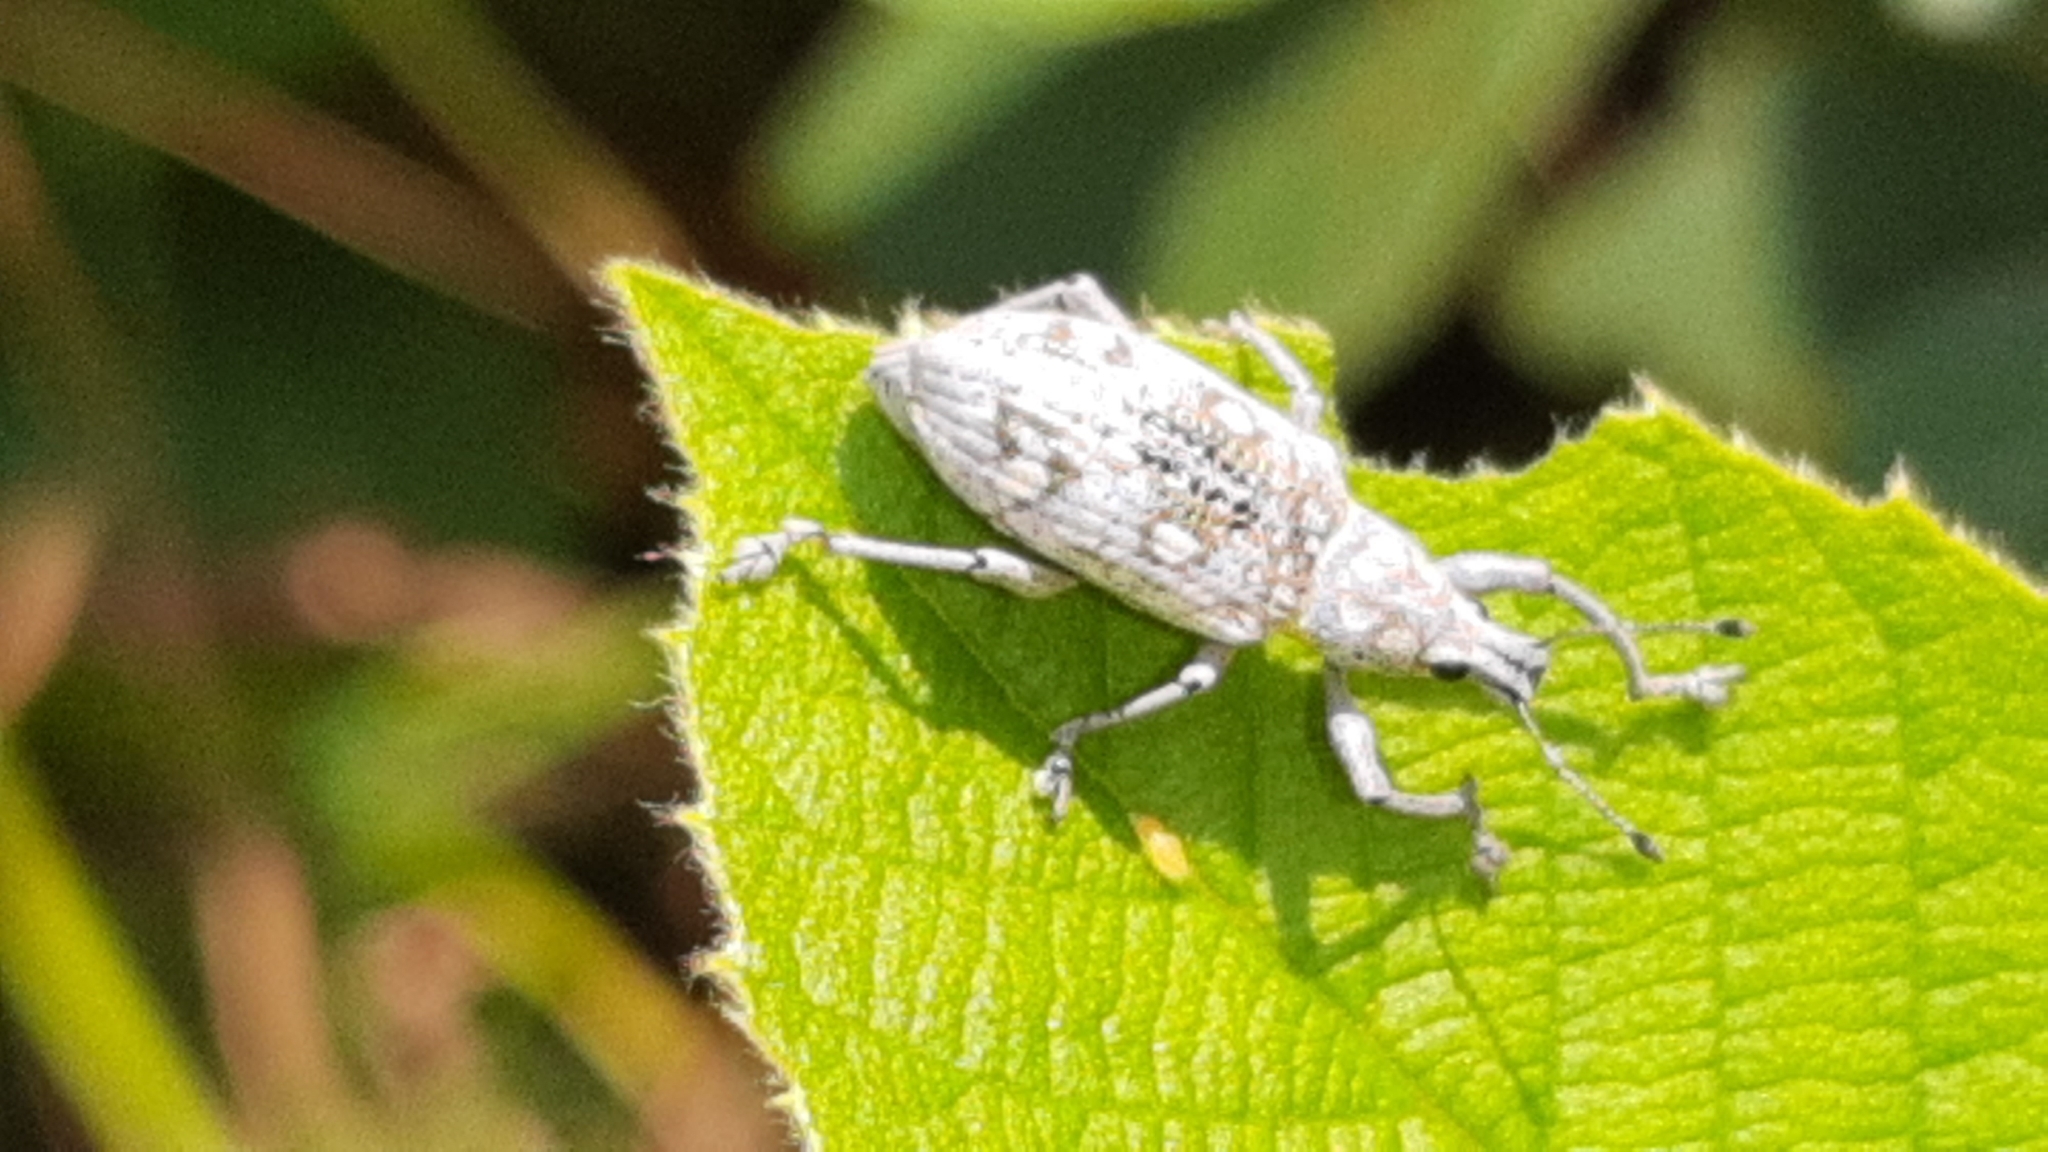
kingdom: Animalia
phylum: Arthropoda
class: Insecta
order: Coleoptera
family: Curculionidae
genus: Decasticha
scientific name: Decasticha subocellata
